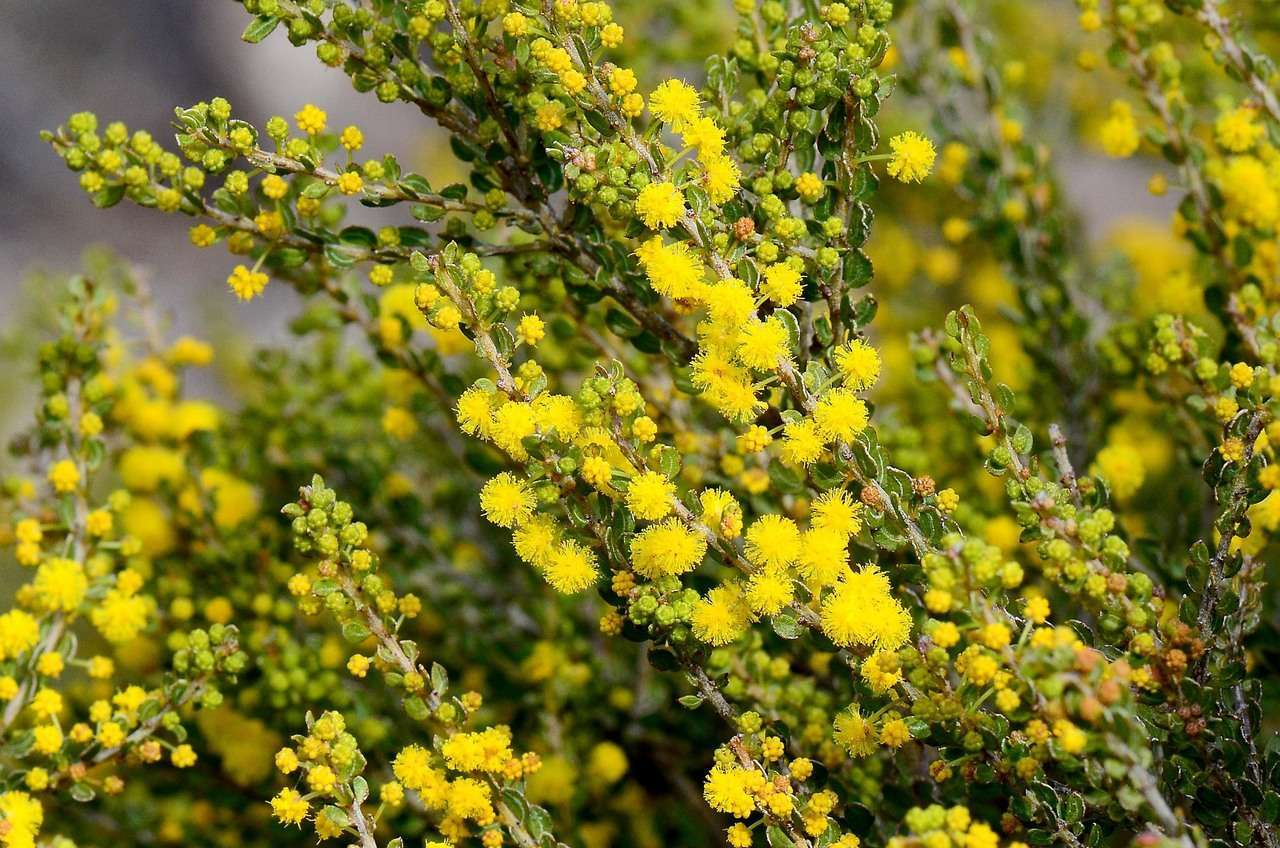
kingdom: Plantae
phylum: Tracheophyta
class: Magnoliopsida
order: Fabales
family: Fabaceae
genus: Acacia
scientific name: Acacia glandulicarpa
